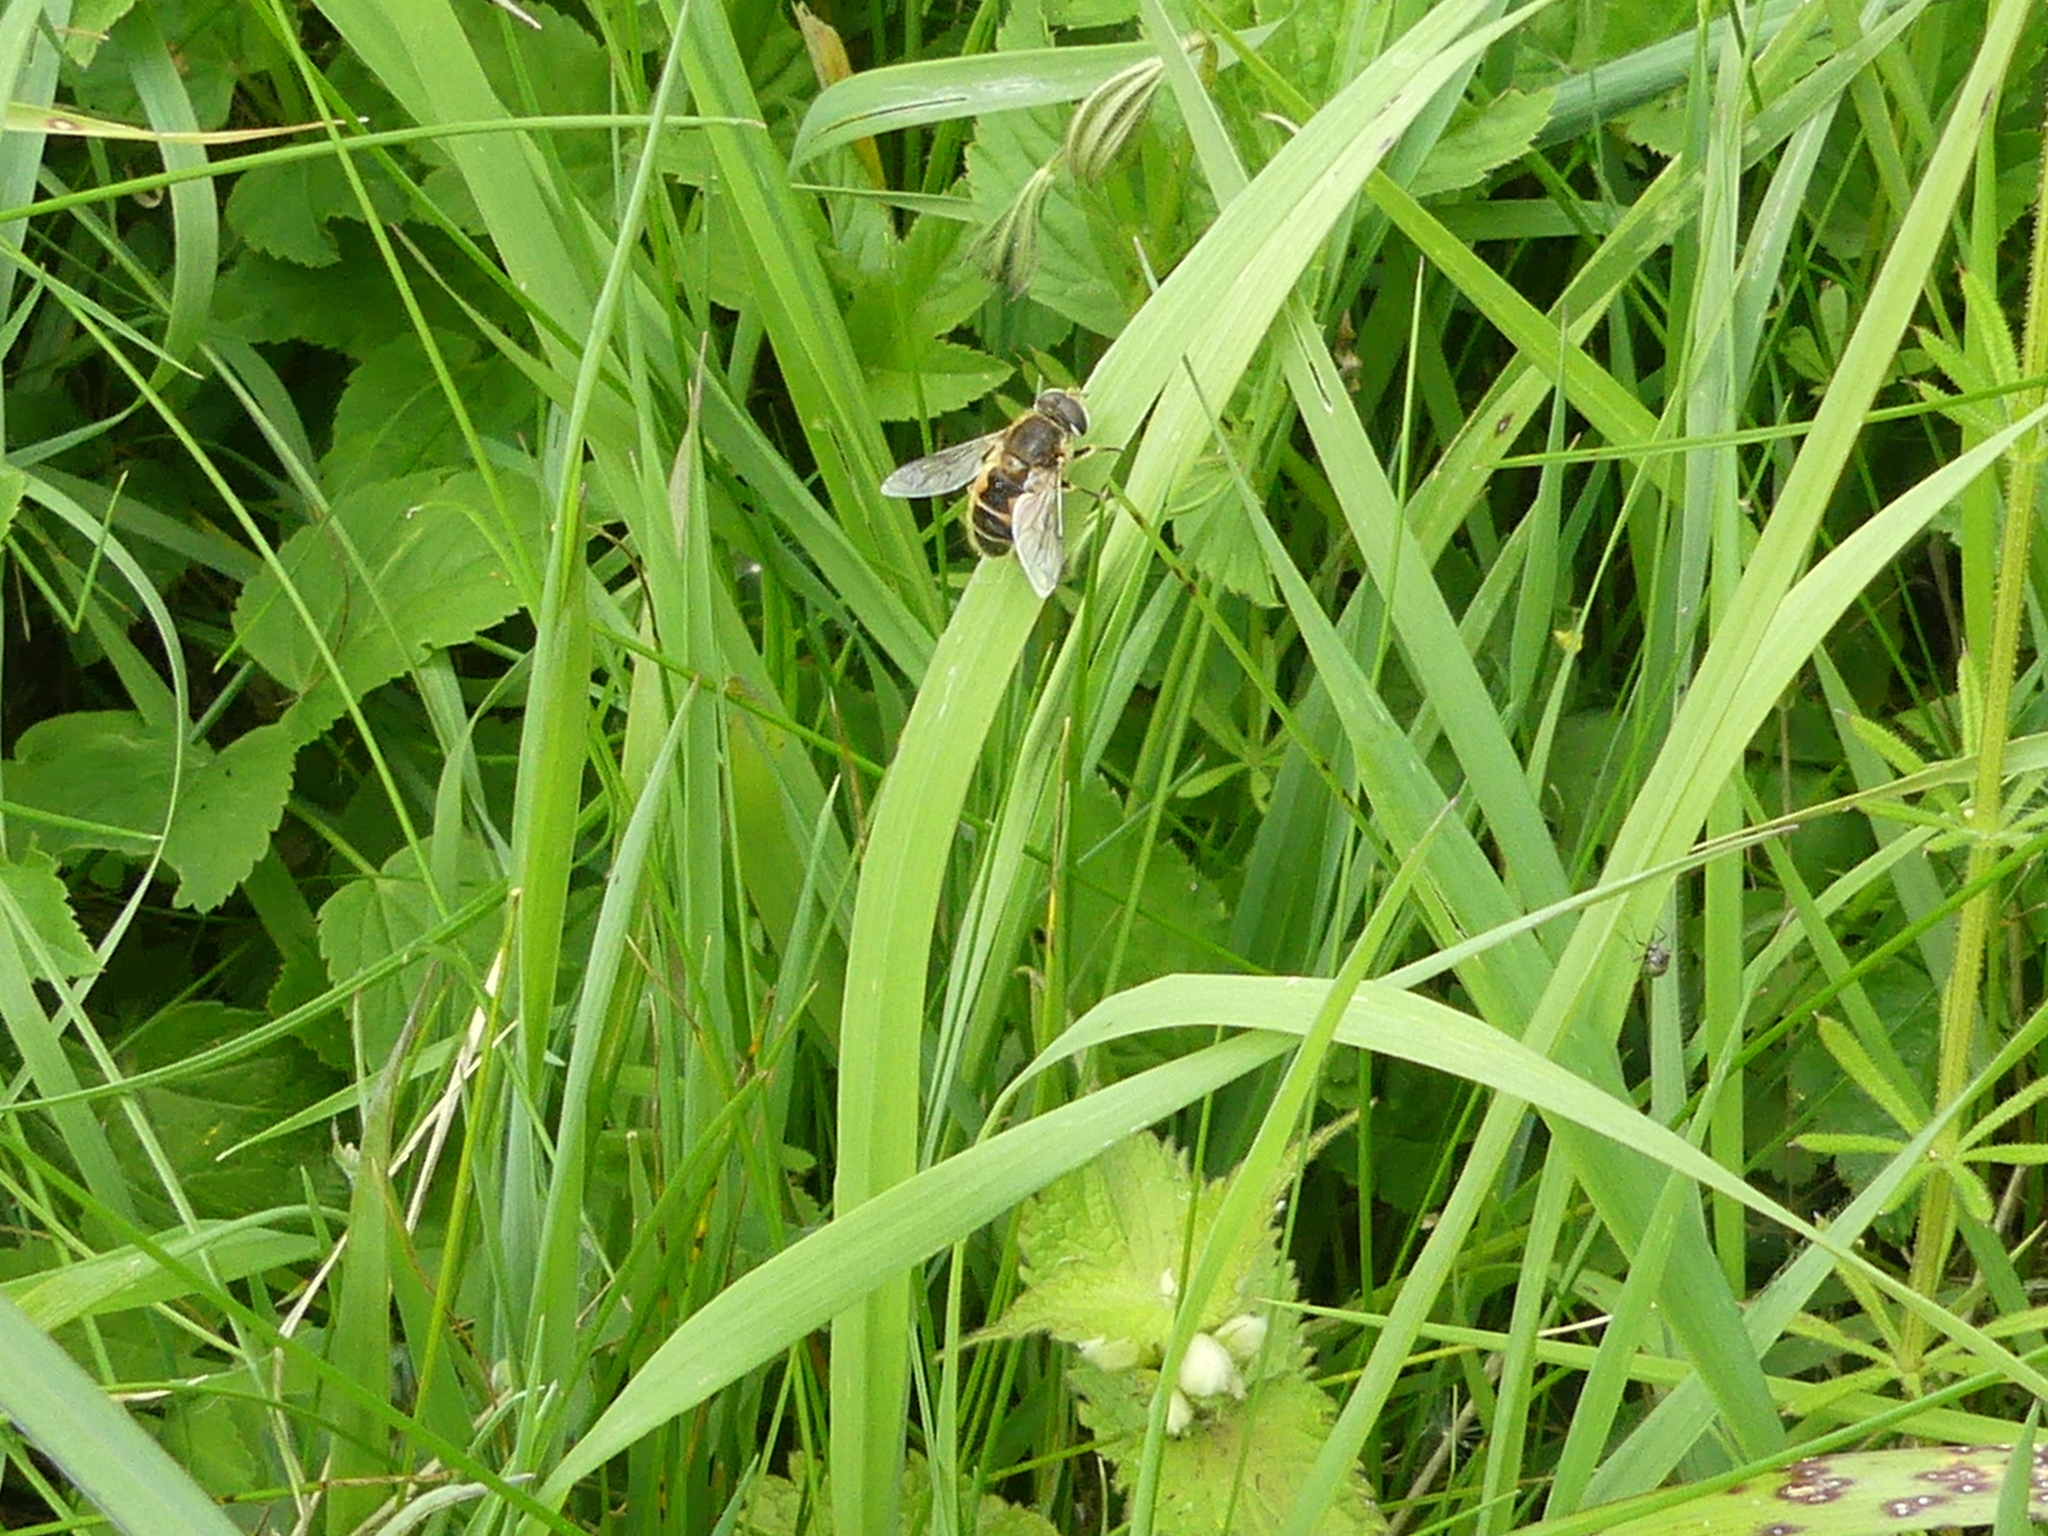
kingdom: Animalia
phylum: Arthropoda
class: Insecta
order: Diptera
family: Syrphidae
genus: Eristalis
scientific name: Eristalis arbustorum
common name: Hover fly
